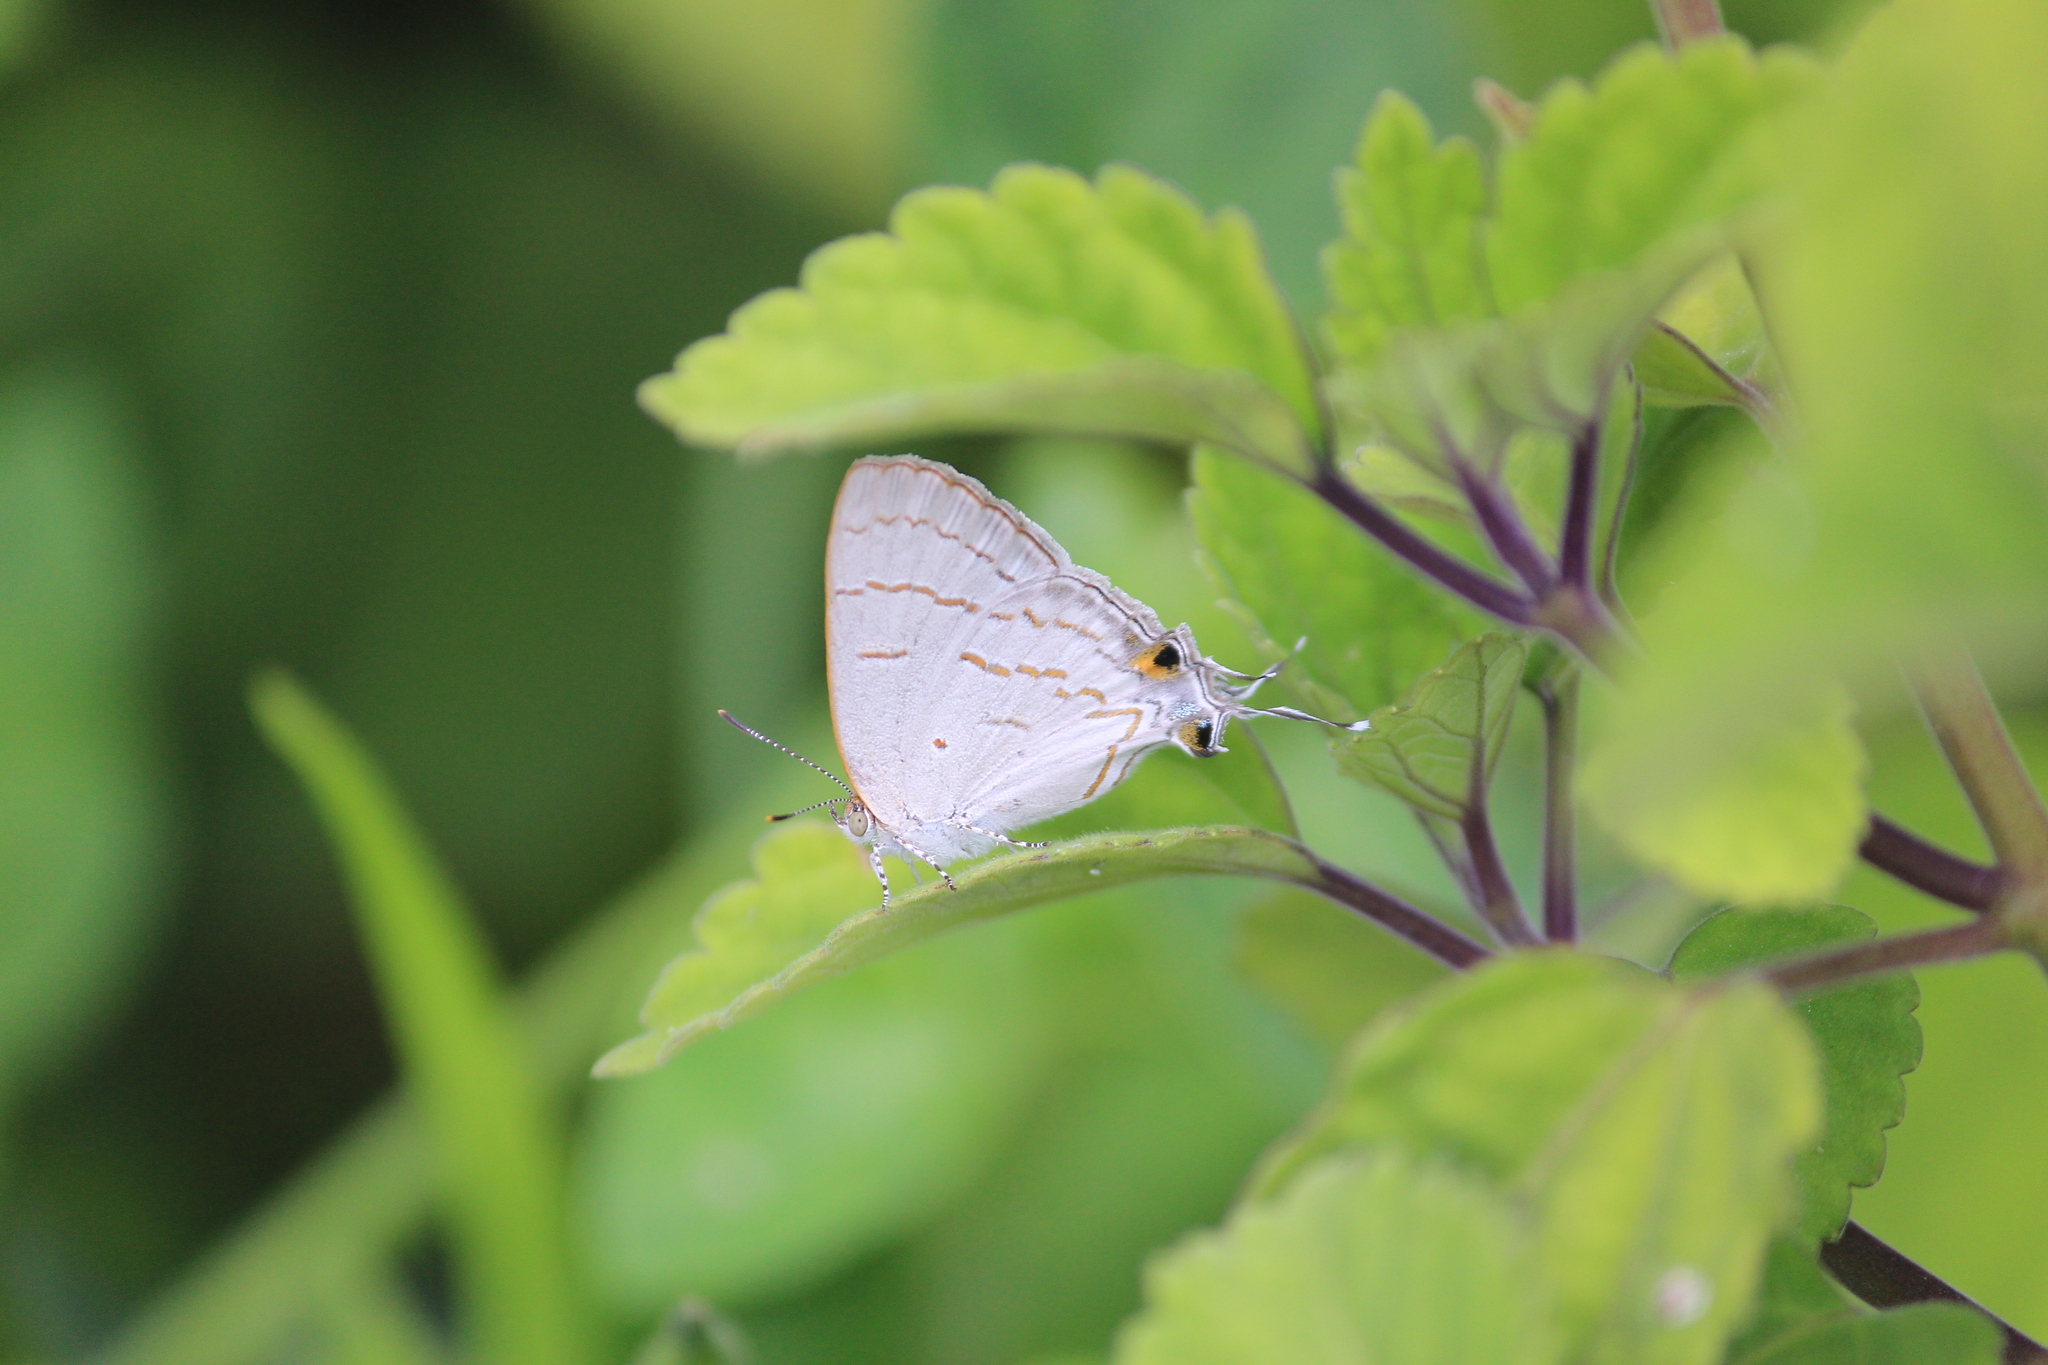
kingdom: Animalia
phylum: Arthropoda
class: Insecta
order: Lepidoptera
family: Lycaenidae
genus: Hypolycaena
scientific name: Hypolycaena philippus
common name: Common hairstreak
